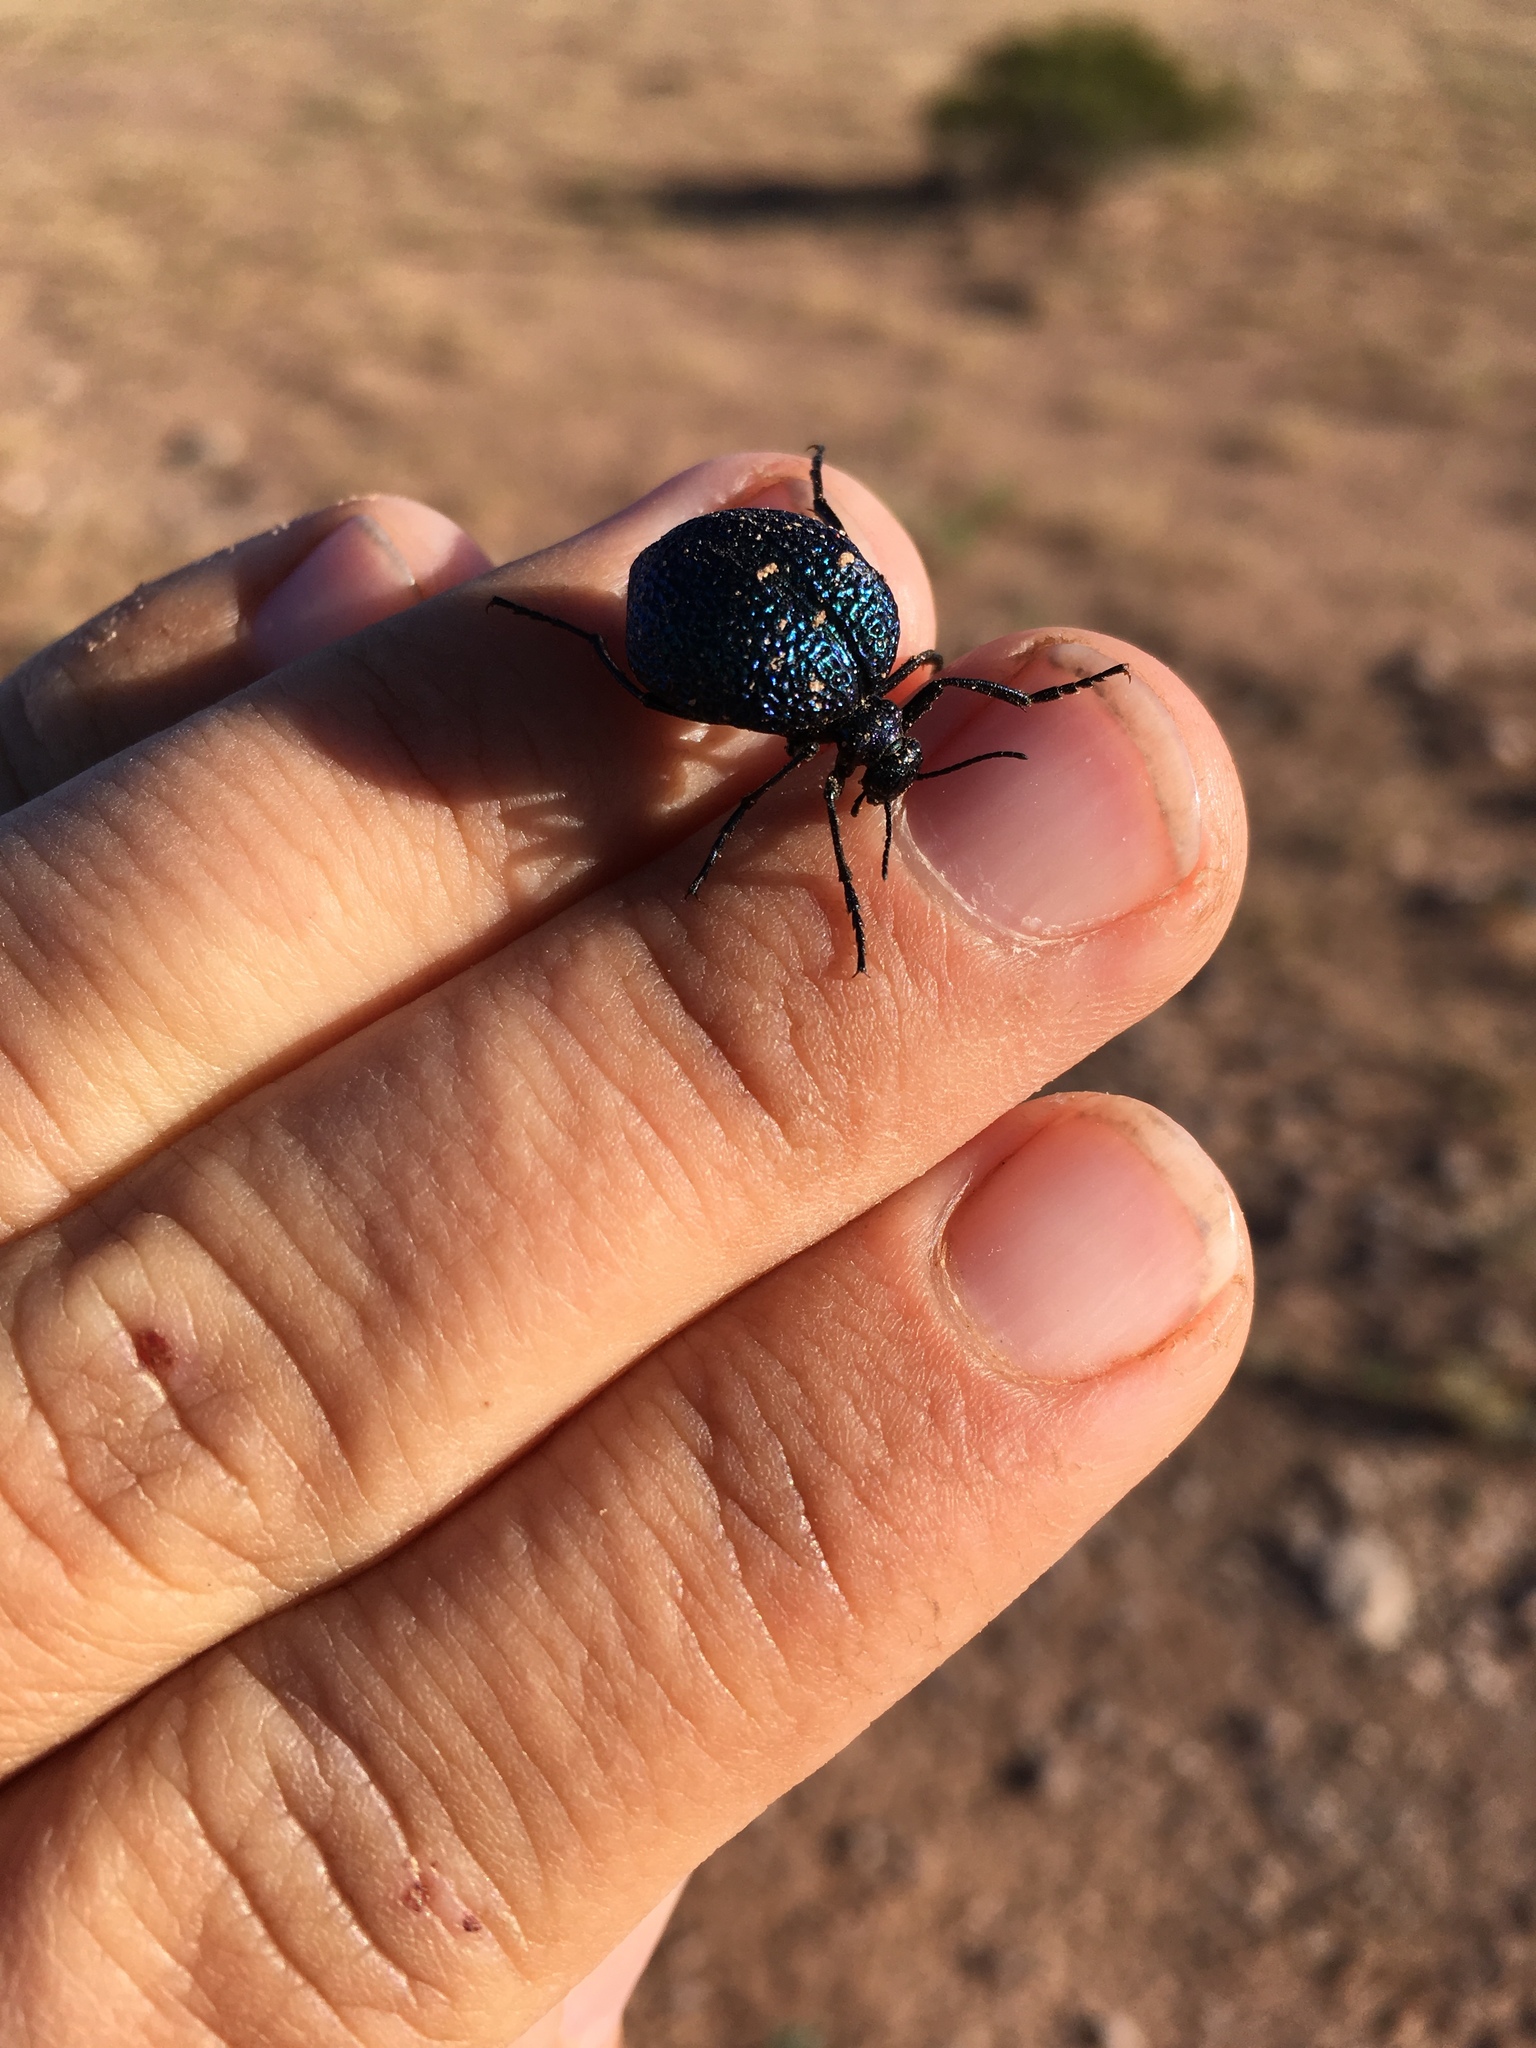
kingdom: Animalia
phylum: Arthropoda
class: Insecta
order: Coleoptera
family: Meloidae
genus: Cysteodemus
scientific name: Cysteodemus wislizeni
